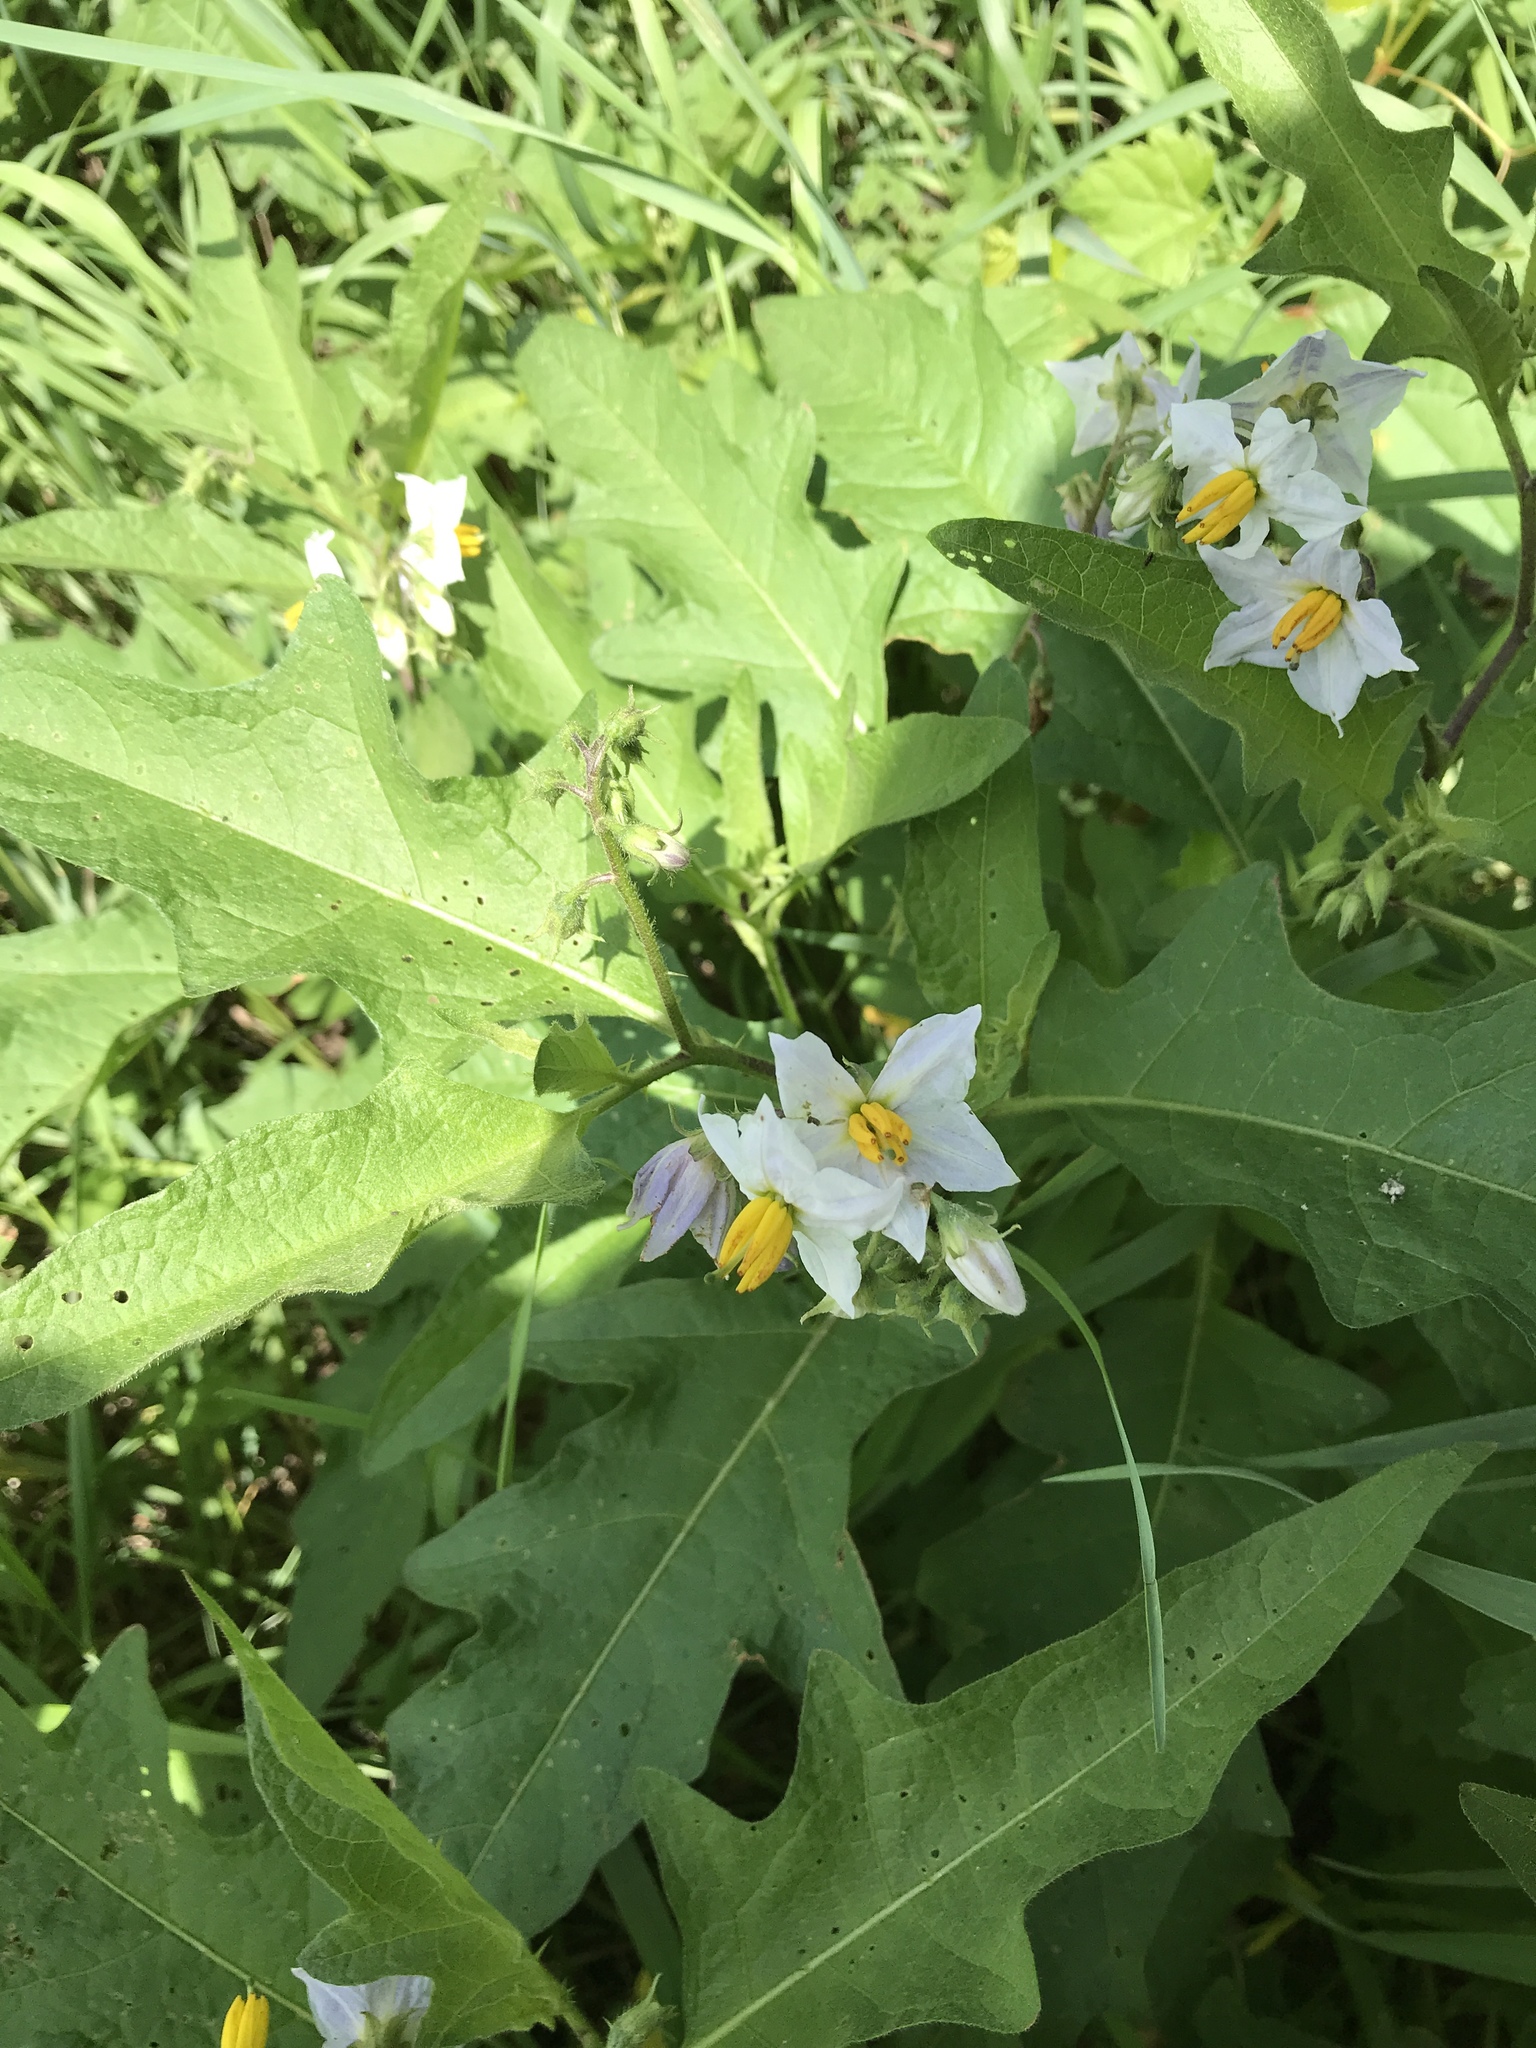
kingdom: Plantae
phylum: Tracheophyta
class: Magnoliopsida
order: Solanales
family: Solanaceae
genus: Solanum
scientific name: Solanum carolinense
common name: Horse-nettle
